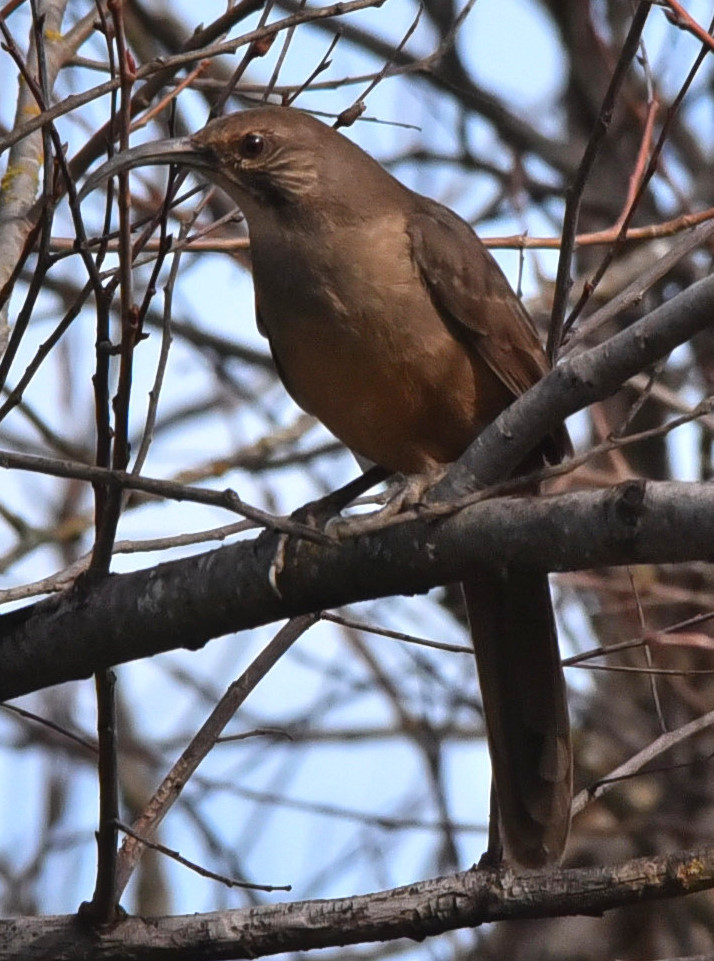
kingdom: Animalia
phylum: Chordata
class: Aves
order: Passeriformes
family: Mimidae
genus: Toxostoma
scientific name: Toxostoma redivivum
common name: California thrasher
